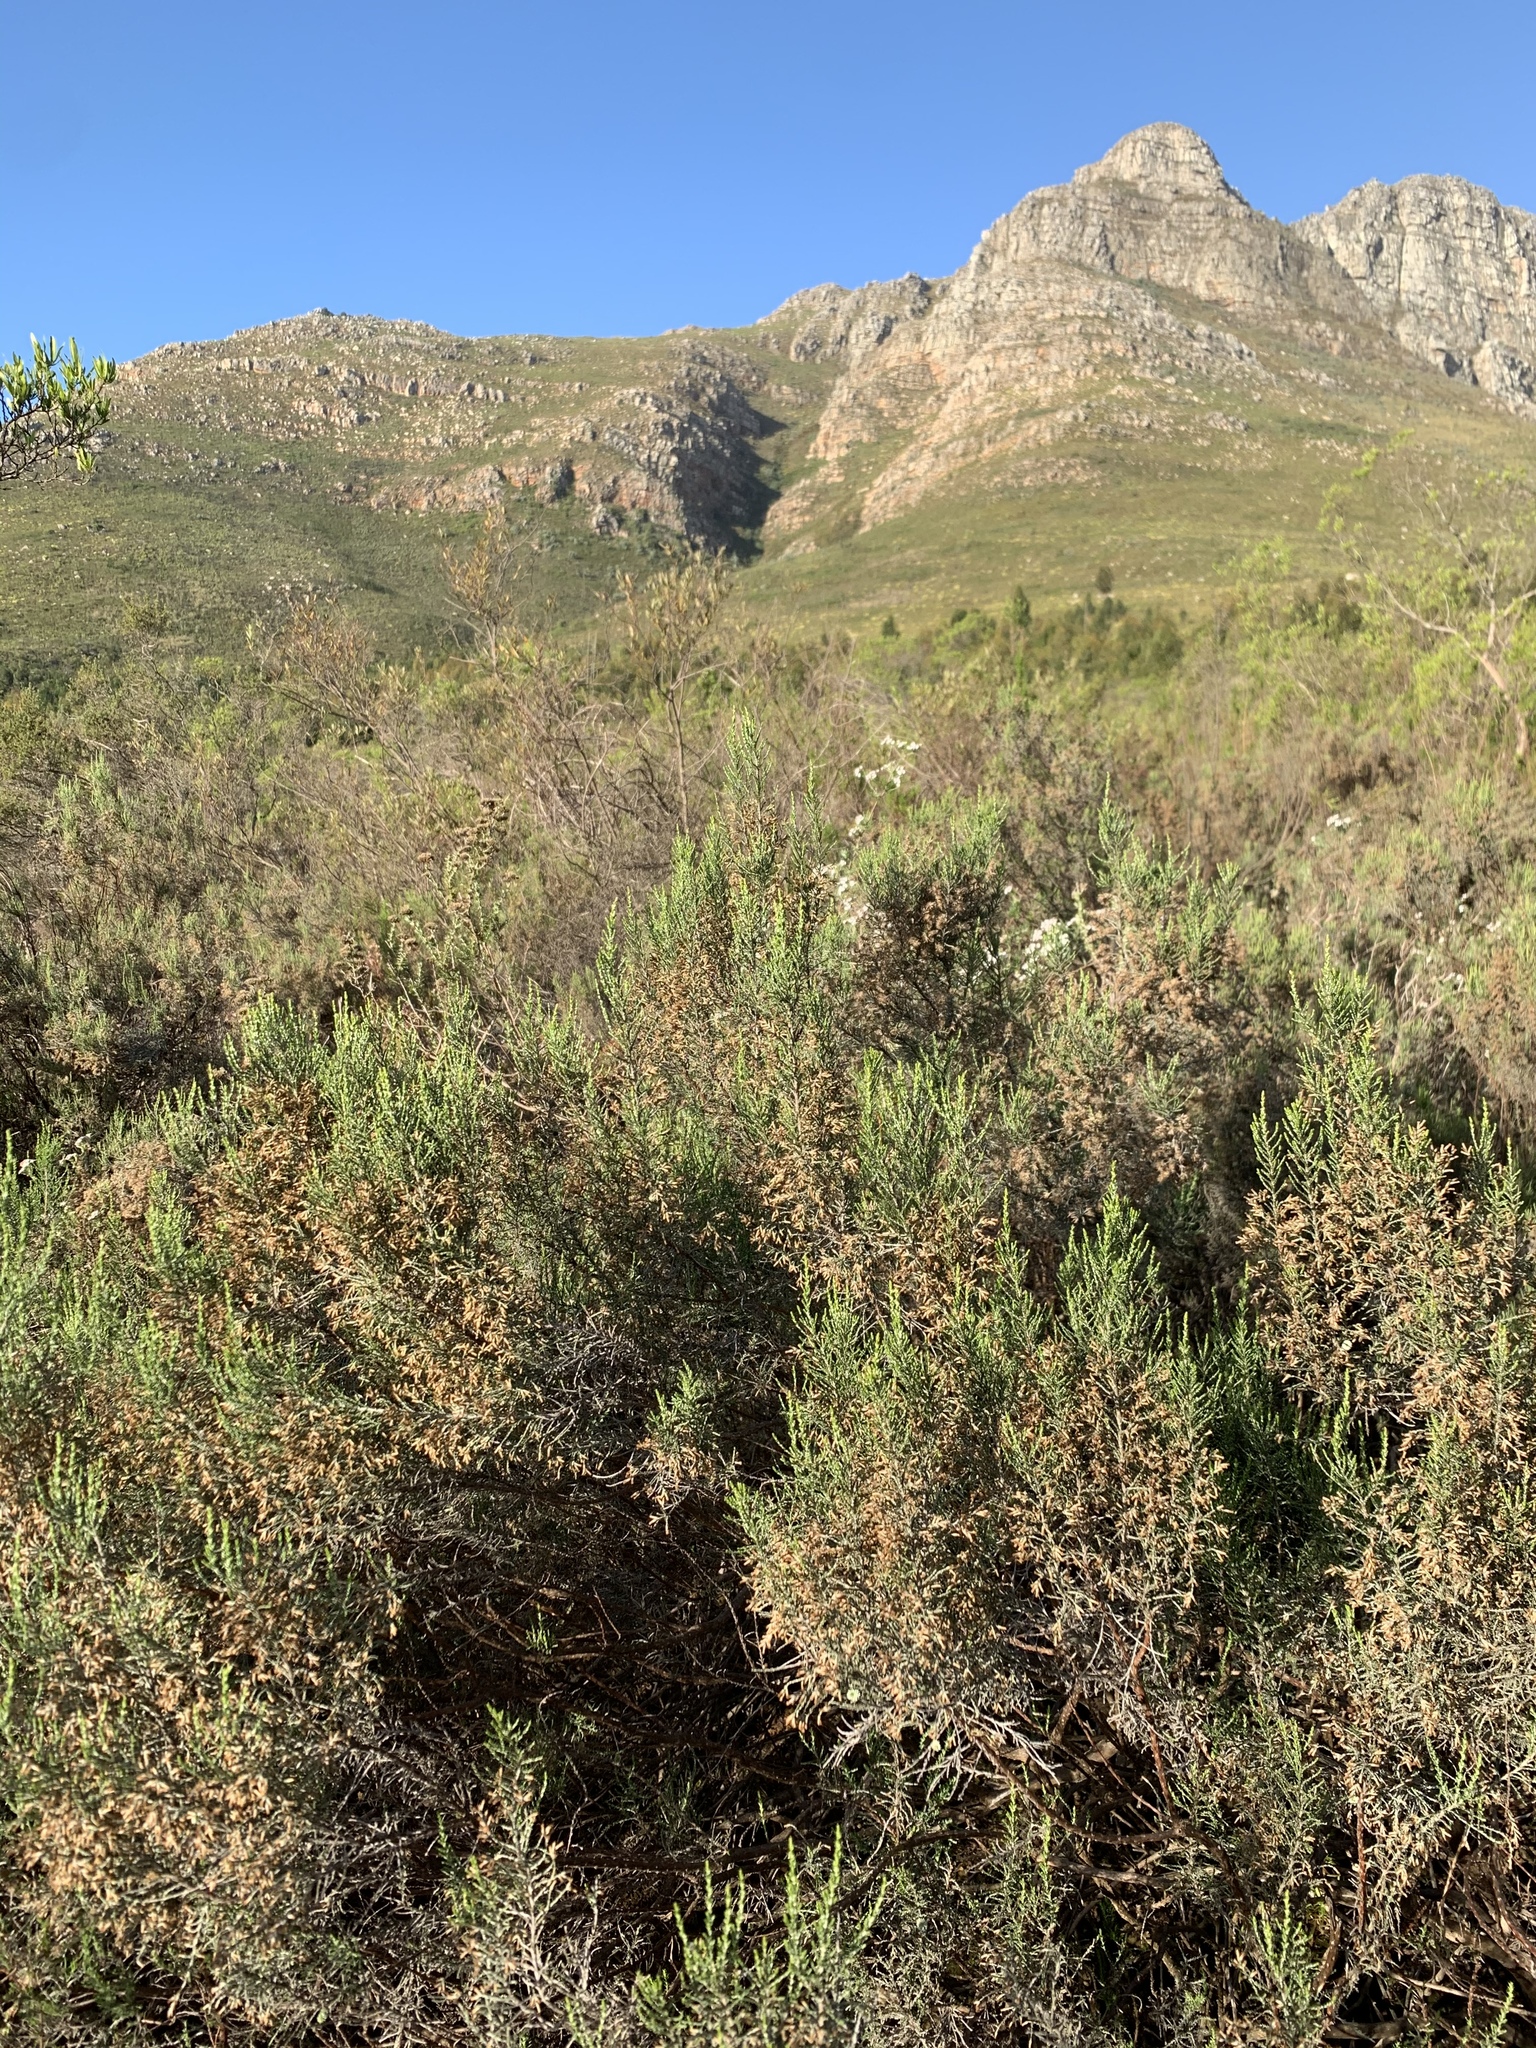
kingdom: Plantae
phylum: Tracheophyta
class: Magnoliopsida
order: Asterales
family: Asteraceae
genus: Dicerothamnus
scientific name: Dicerothamnus rhinocerotis
